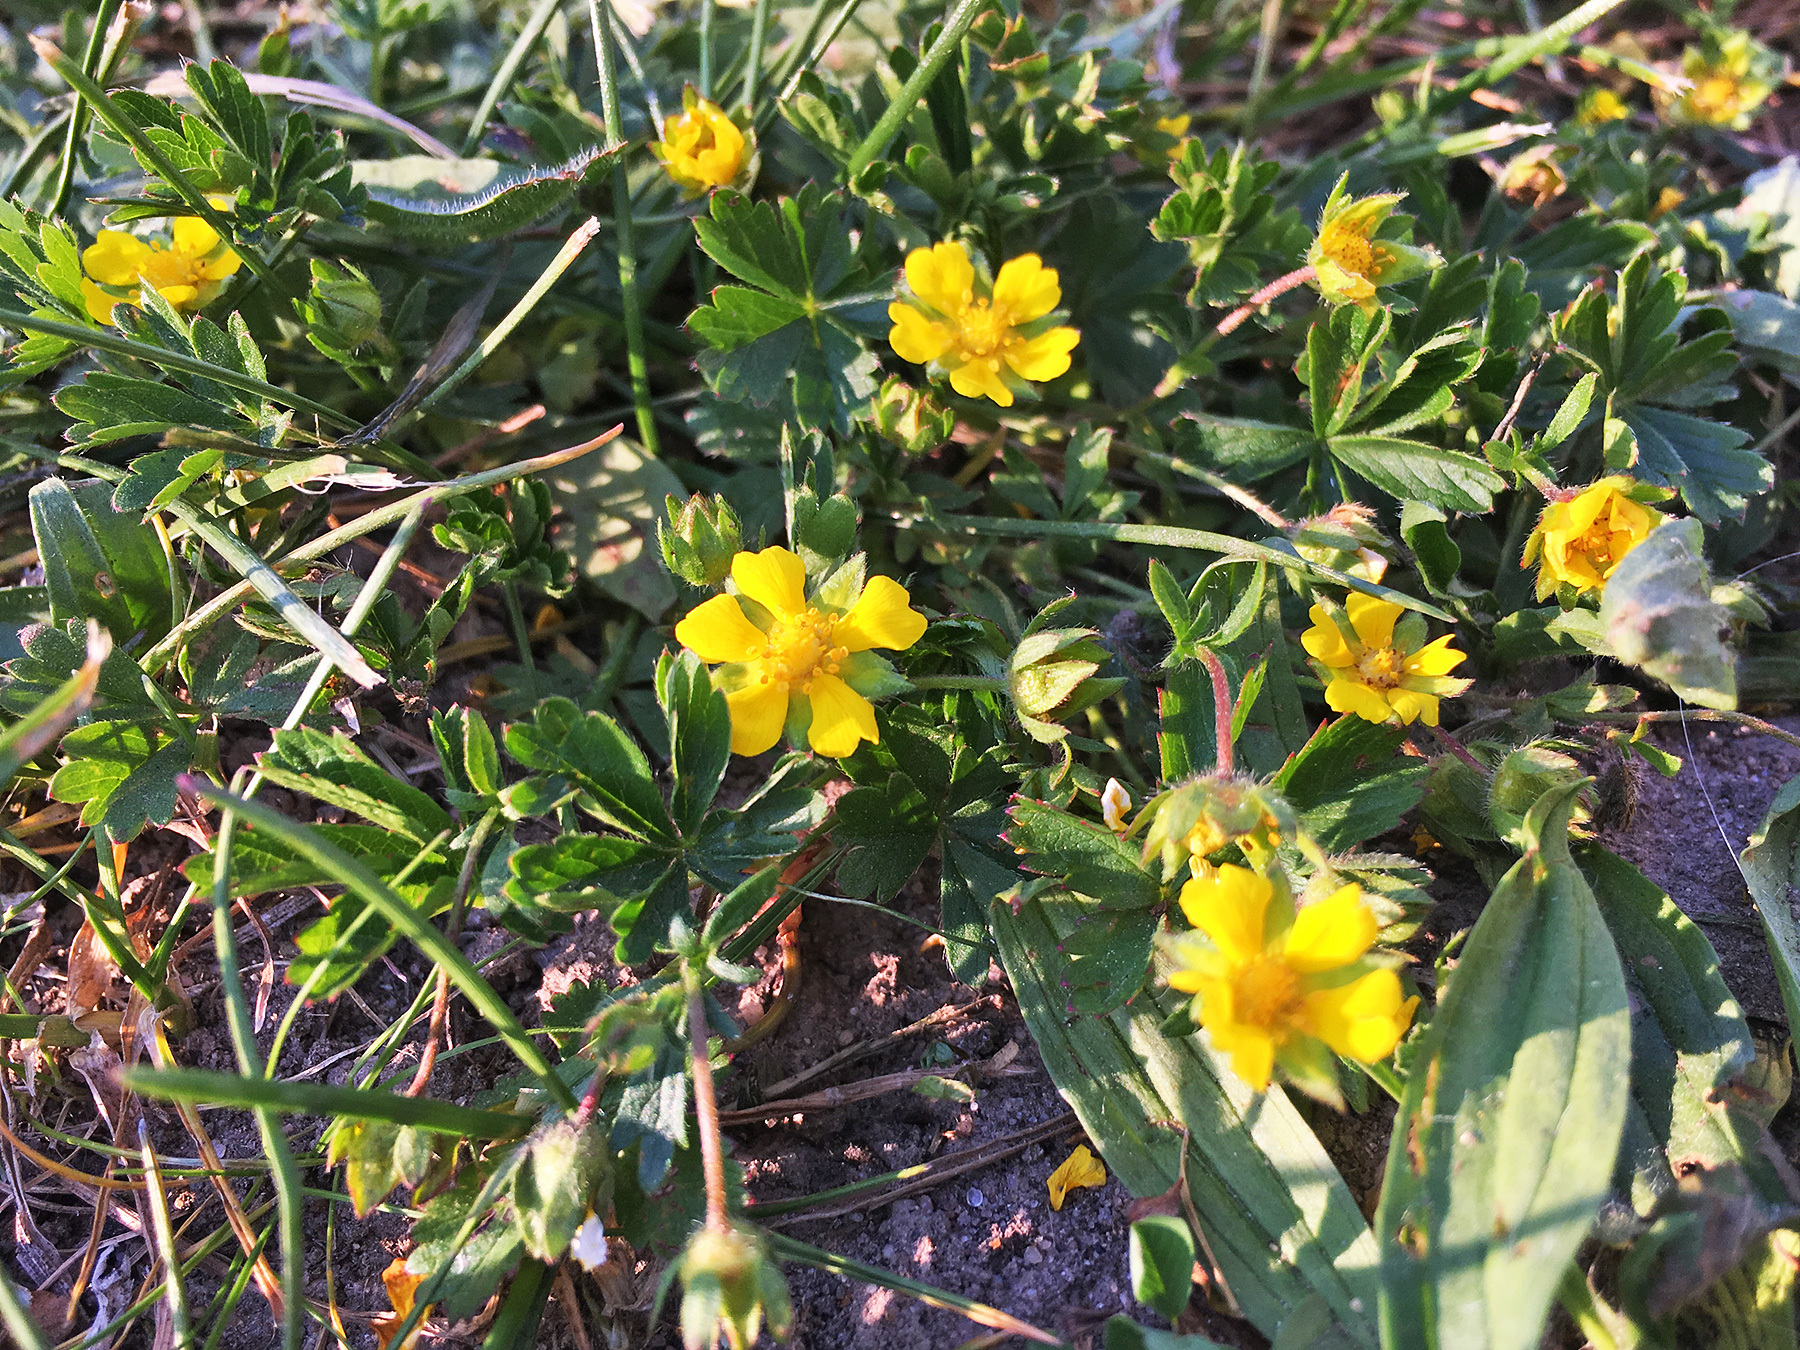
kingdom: Plantae
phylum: Tracheophyta
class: Magnoliopsida
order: Rosales
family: Rosaceae
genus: Potentilla
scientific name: Potentilla verna
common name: Spring cinquefoil
